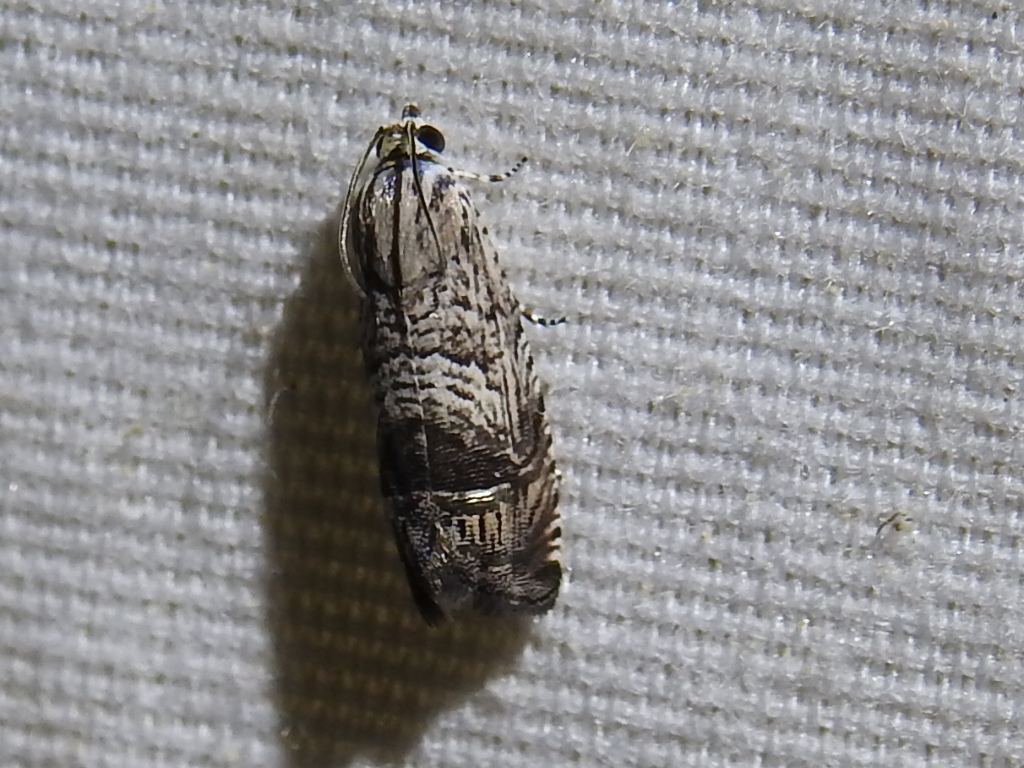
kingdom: Animalia
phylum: Arthropoda
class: Insecta
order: Lepidoptera
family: Tortricidae
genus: Ofatulena
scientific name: Ofatulena duodecemstriata
